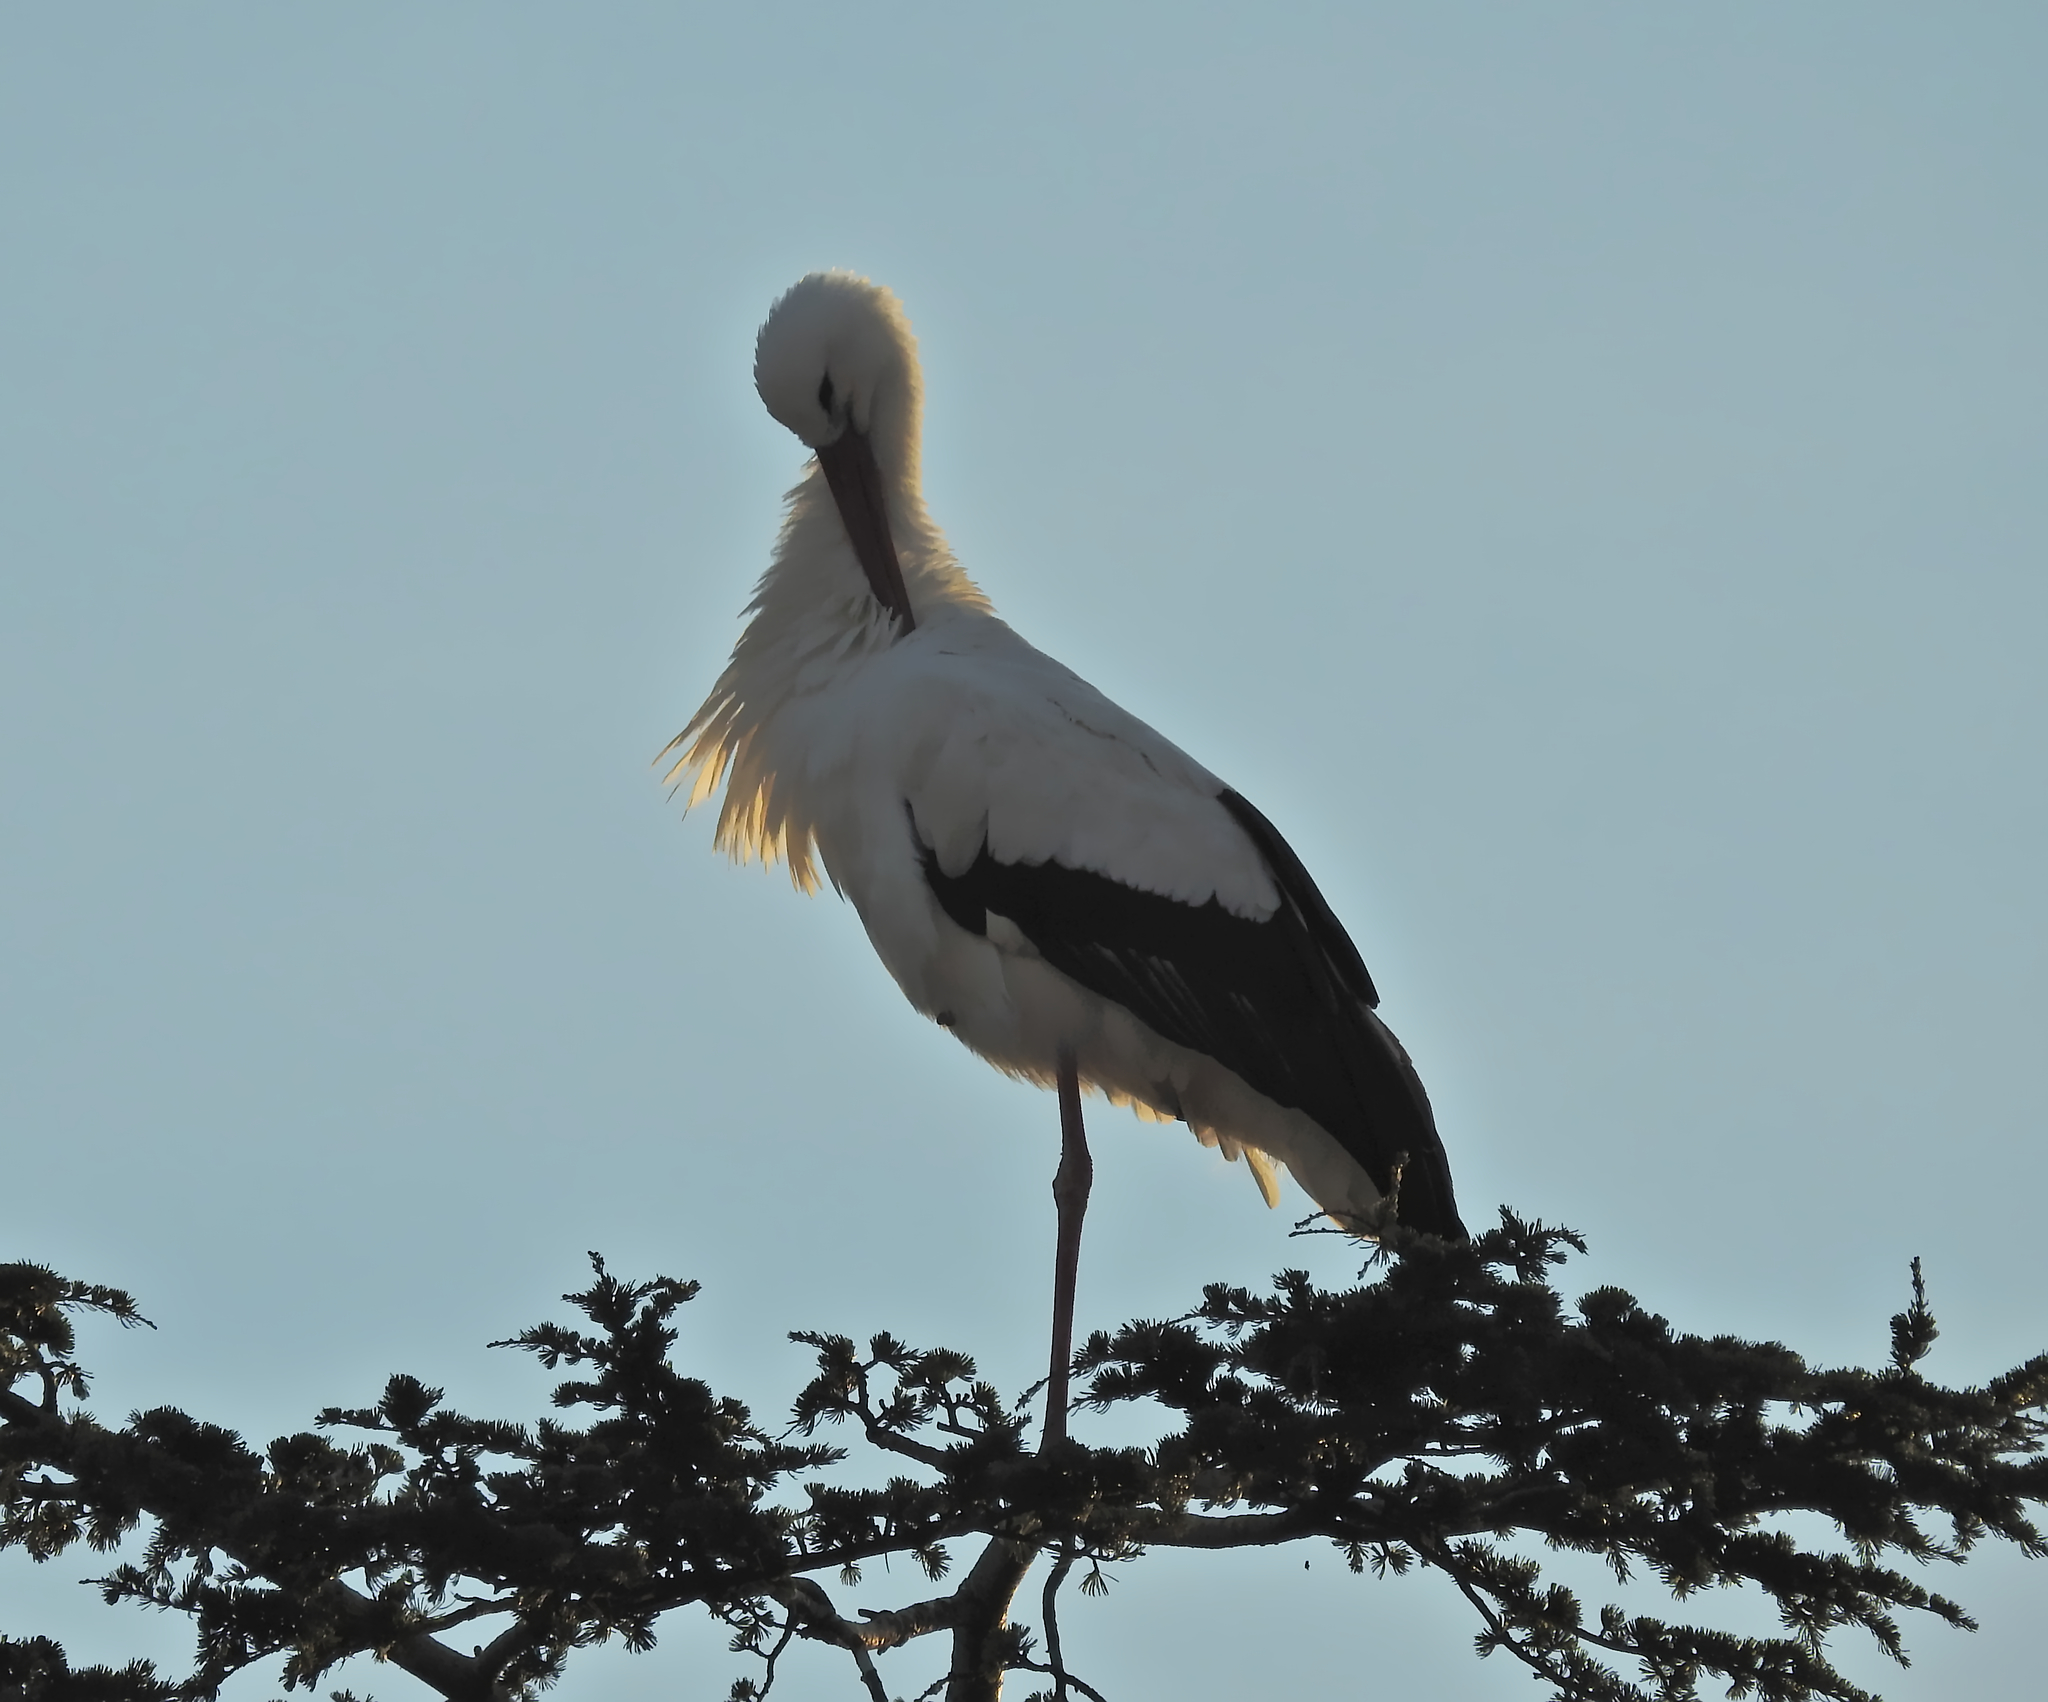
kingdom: Animalia
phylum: Chordata
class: Aves
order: Ciconiiformes
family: Ciconiidae
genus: Ciconia
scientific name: Ciconia ciconia
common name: White stork
